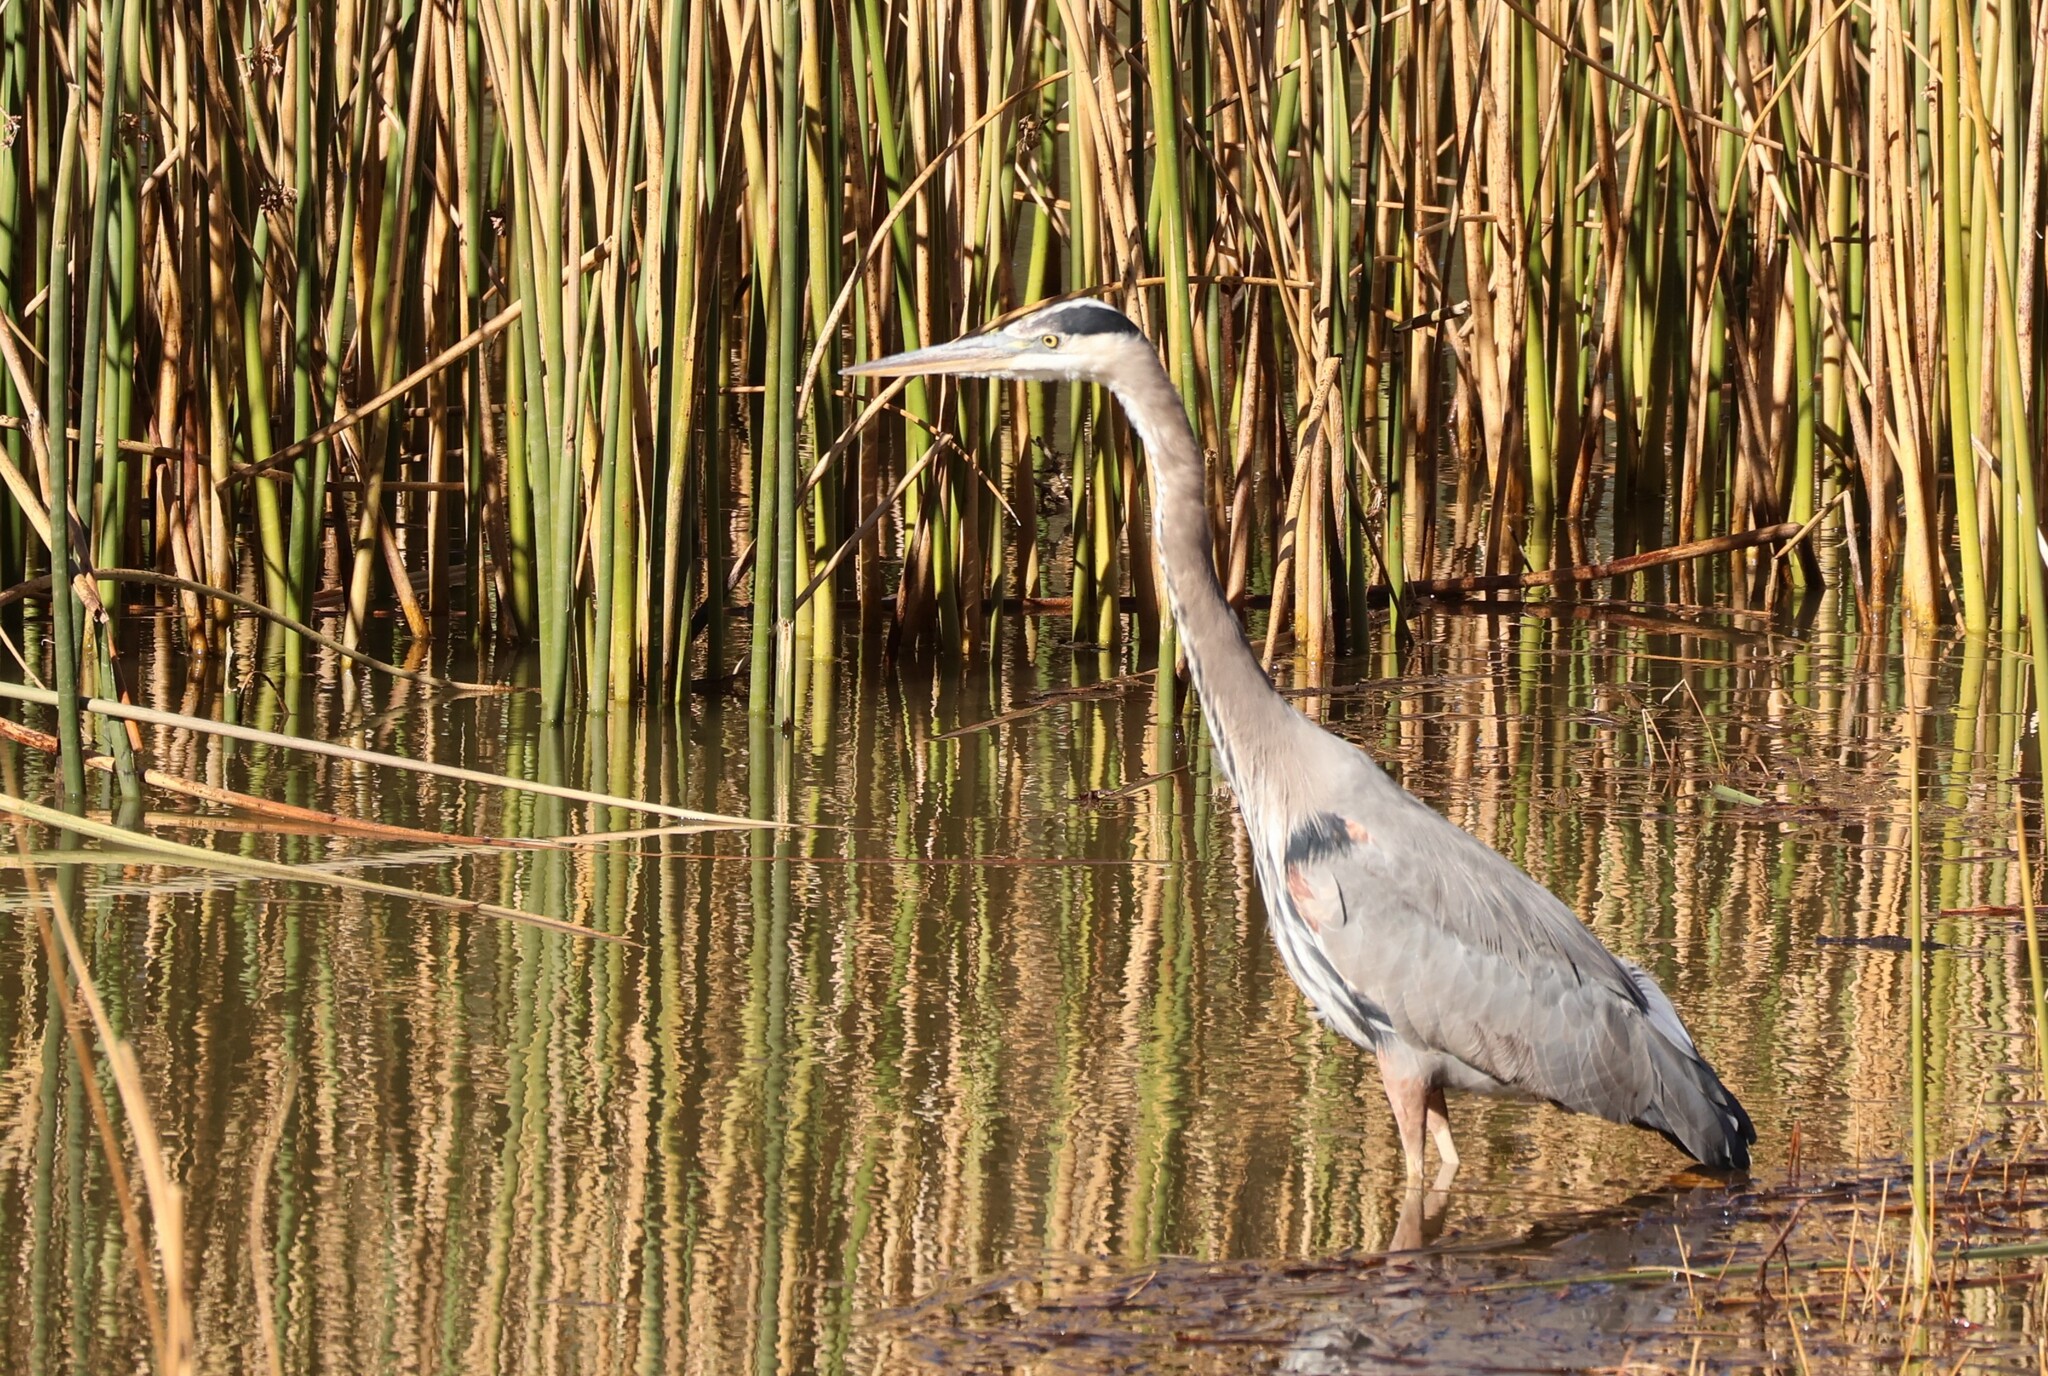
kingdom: Animalia
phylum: Chordata
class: Aves
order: Pelecaniformes
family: Ardeidae
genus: Ardea
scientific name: Ardea herodias
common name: Great blue heron
